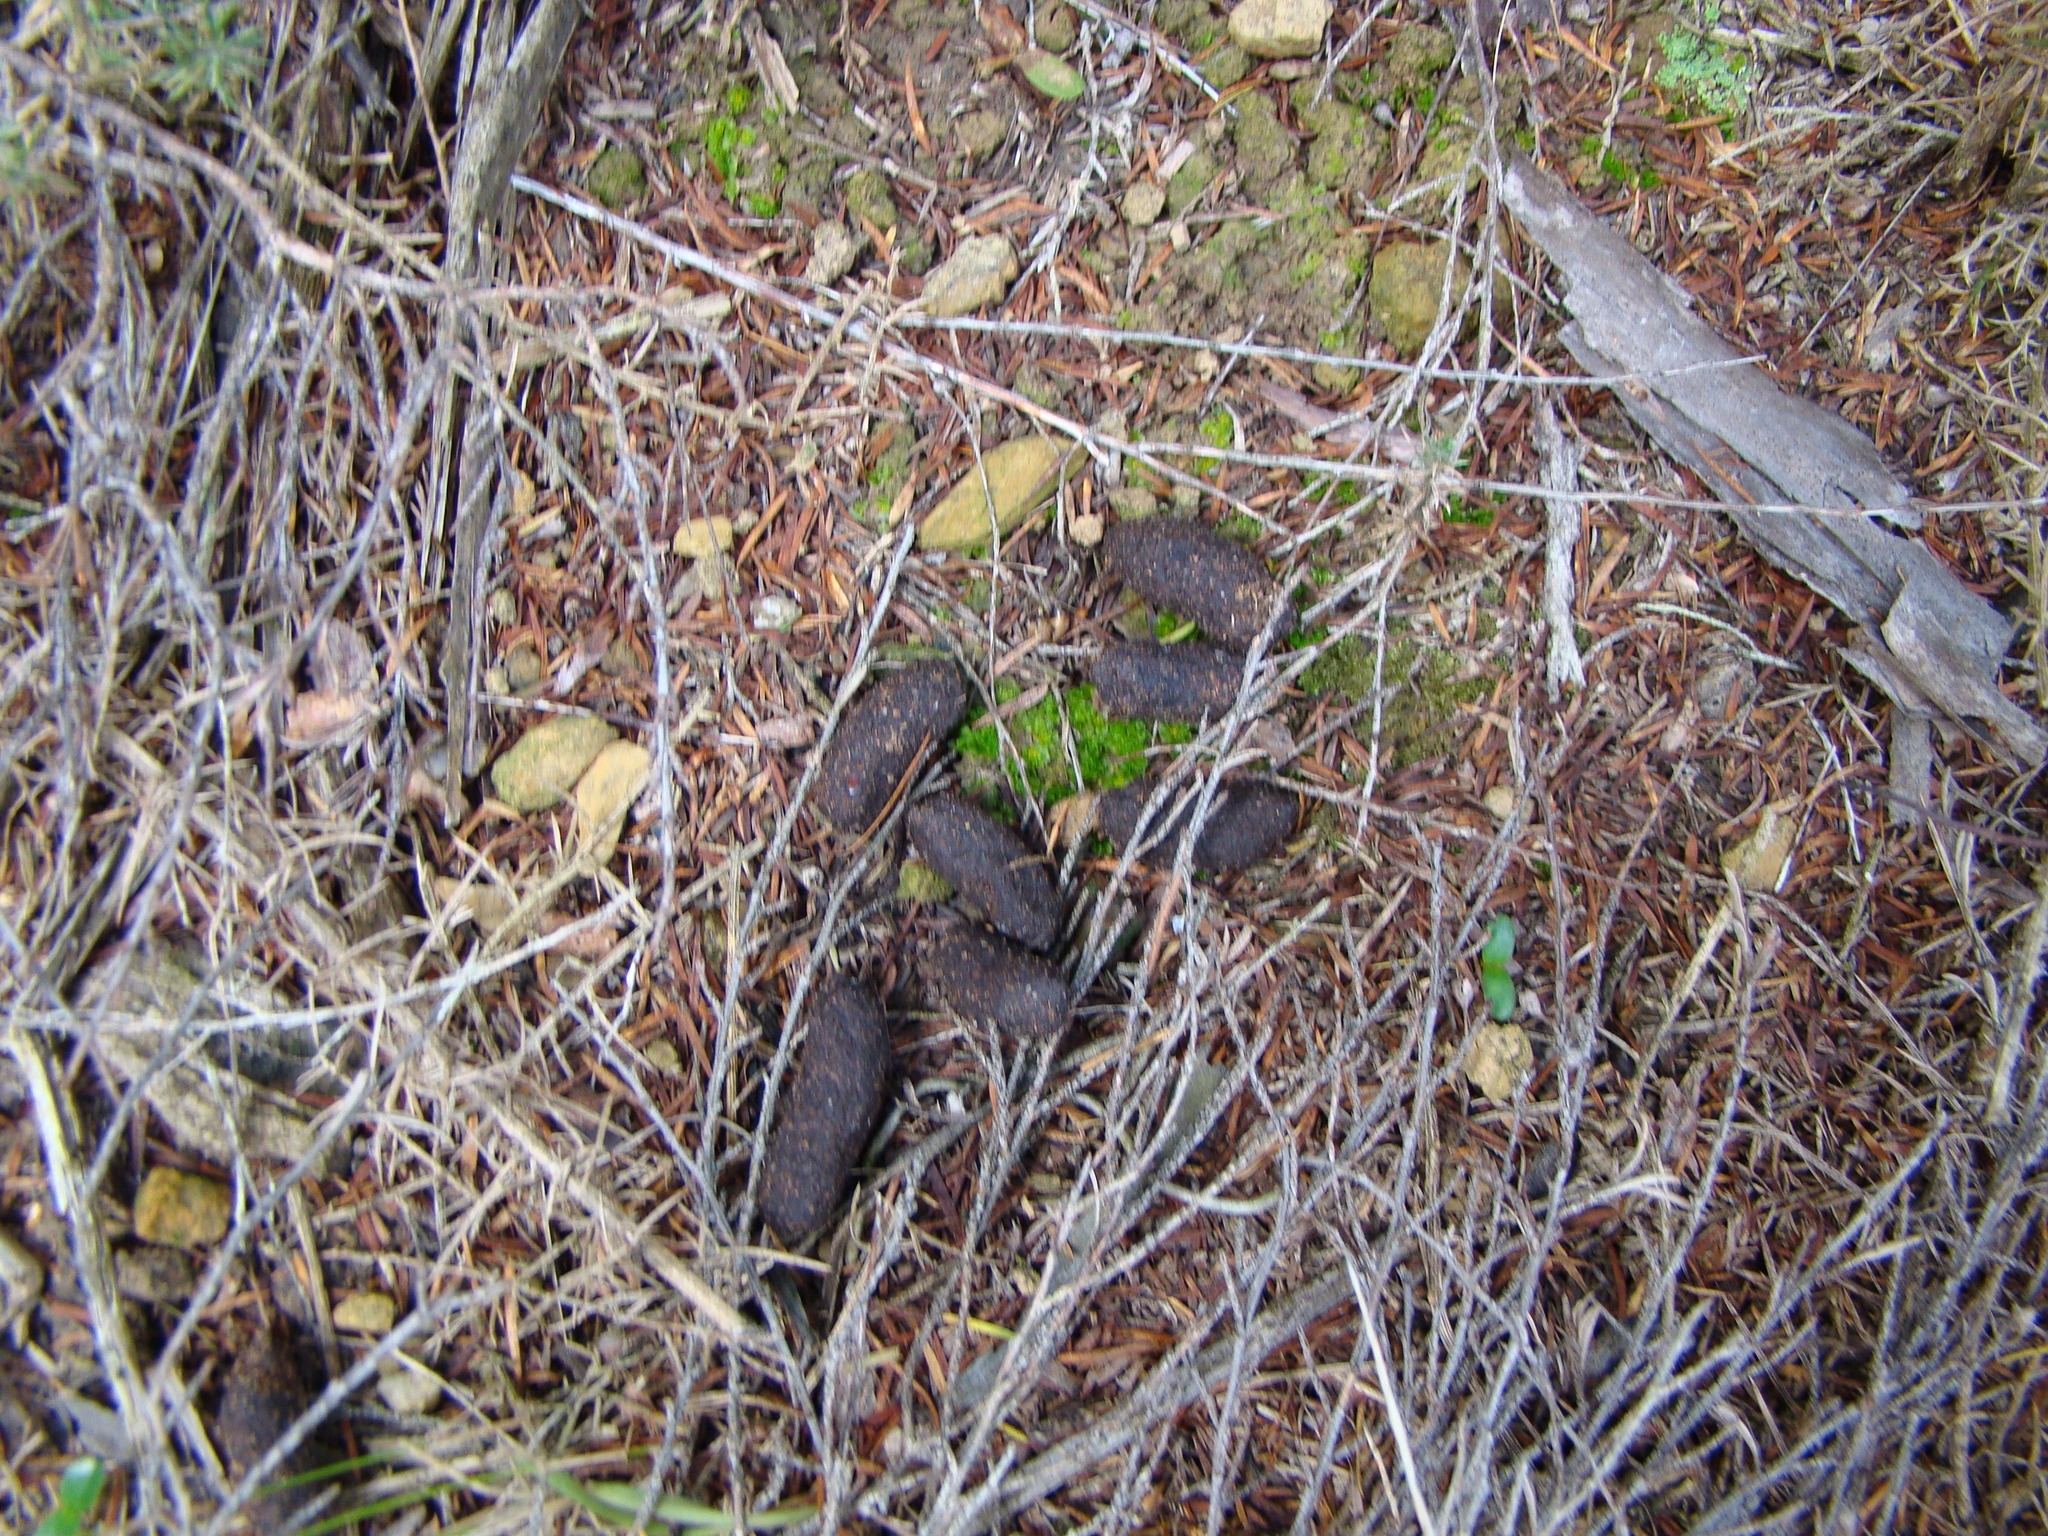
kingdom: Animalia
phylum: Chordata
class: Mammalia
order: Diprotodontia
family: Phalangeridae
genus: Trichosurus
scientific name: Trichosurus vulpecula
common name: Common brushtail
